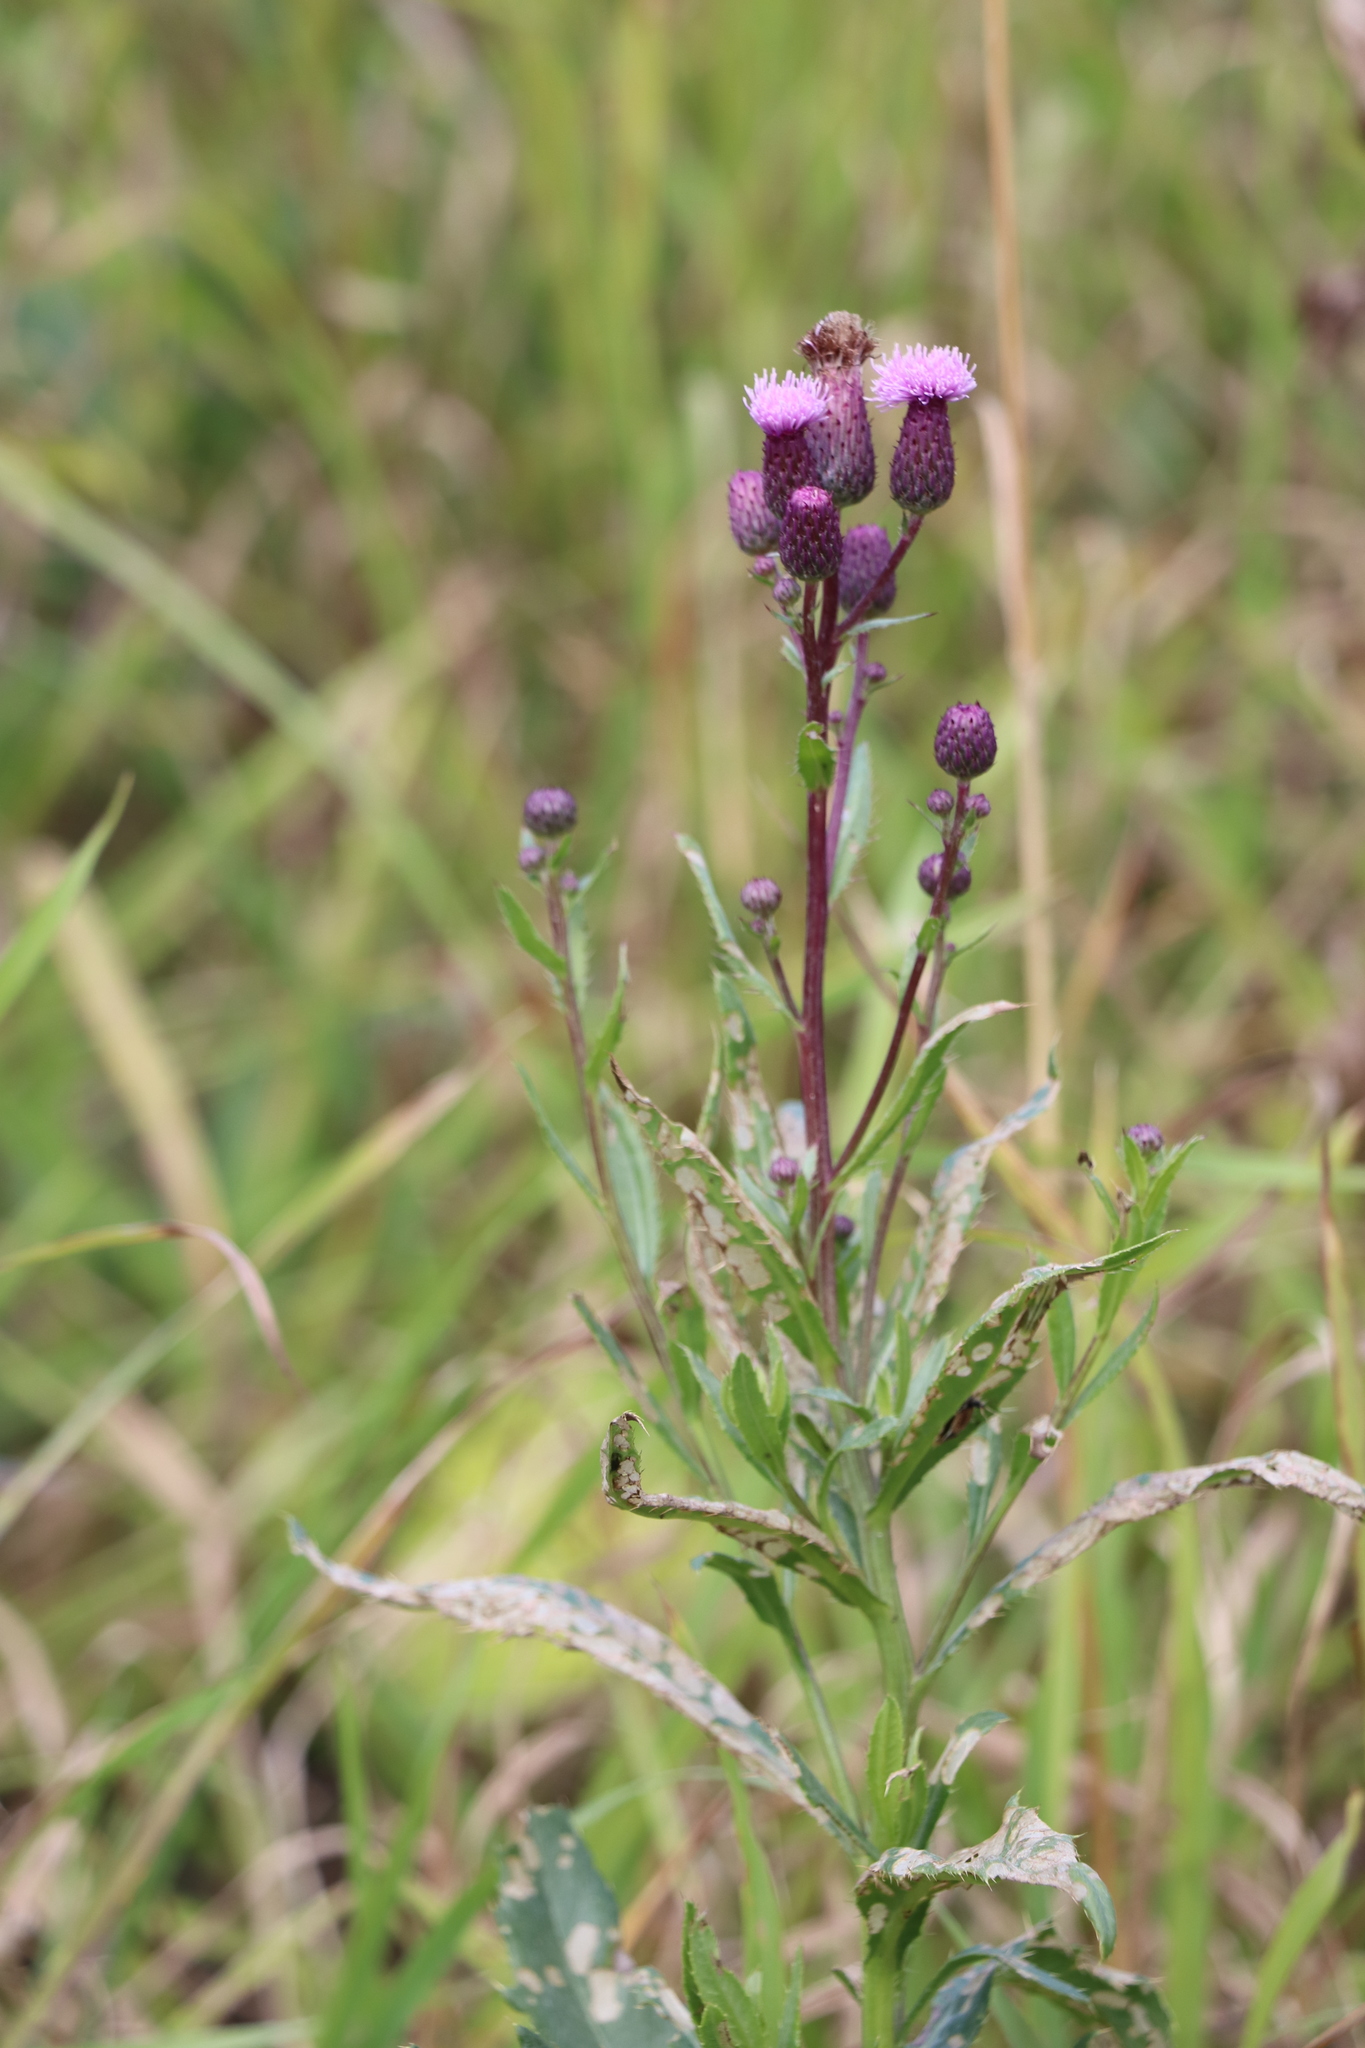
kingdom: Plantae
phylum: Tracheophyta
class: Magnoliopsida
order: Asterales
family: Asteraceae
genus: Cirsium
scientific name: Cirsium arvense
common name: Creeping thistle
